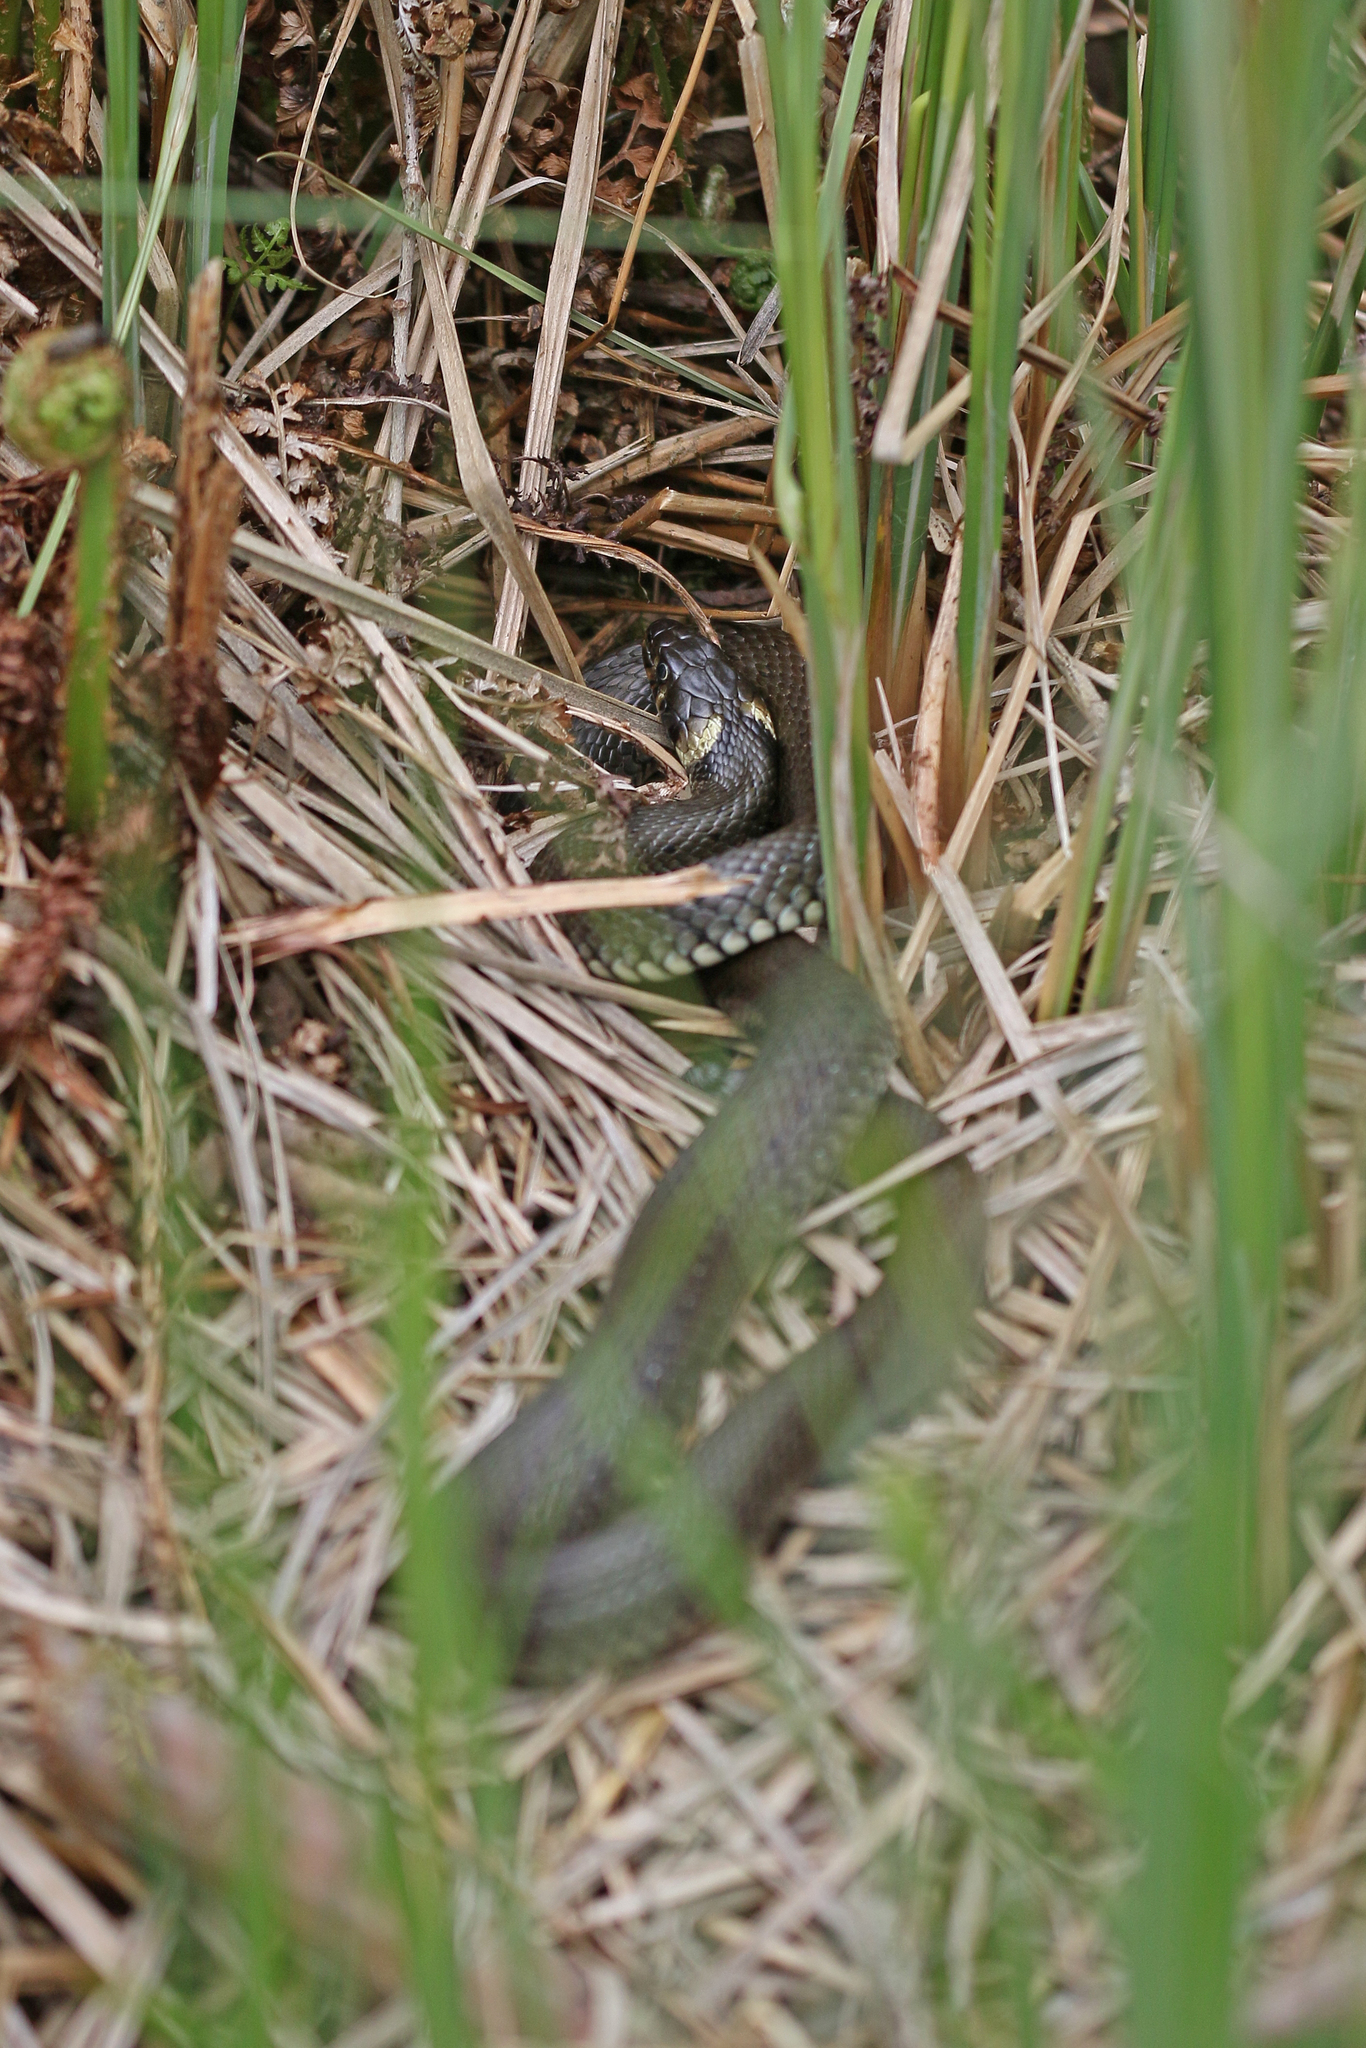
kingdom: Animalia
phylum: Chordata
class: Squamata
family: Colubridae
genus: Natrix
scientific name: Natrix natrix
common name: Grass snake
